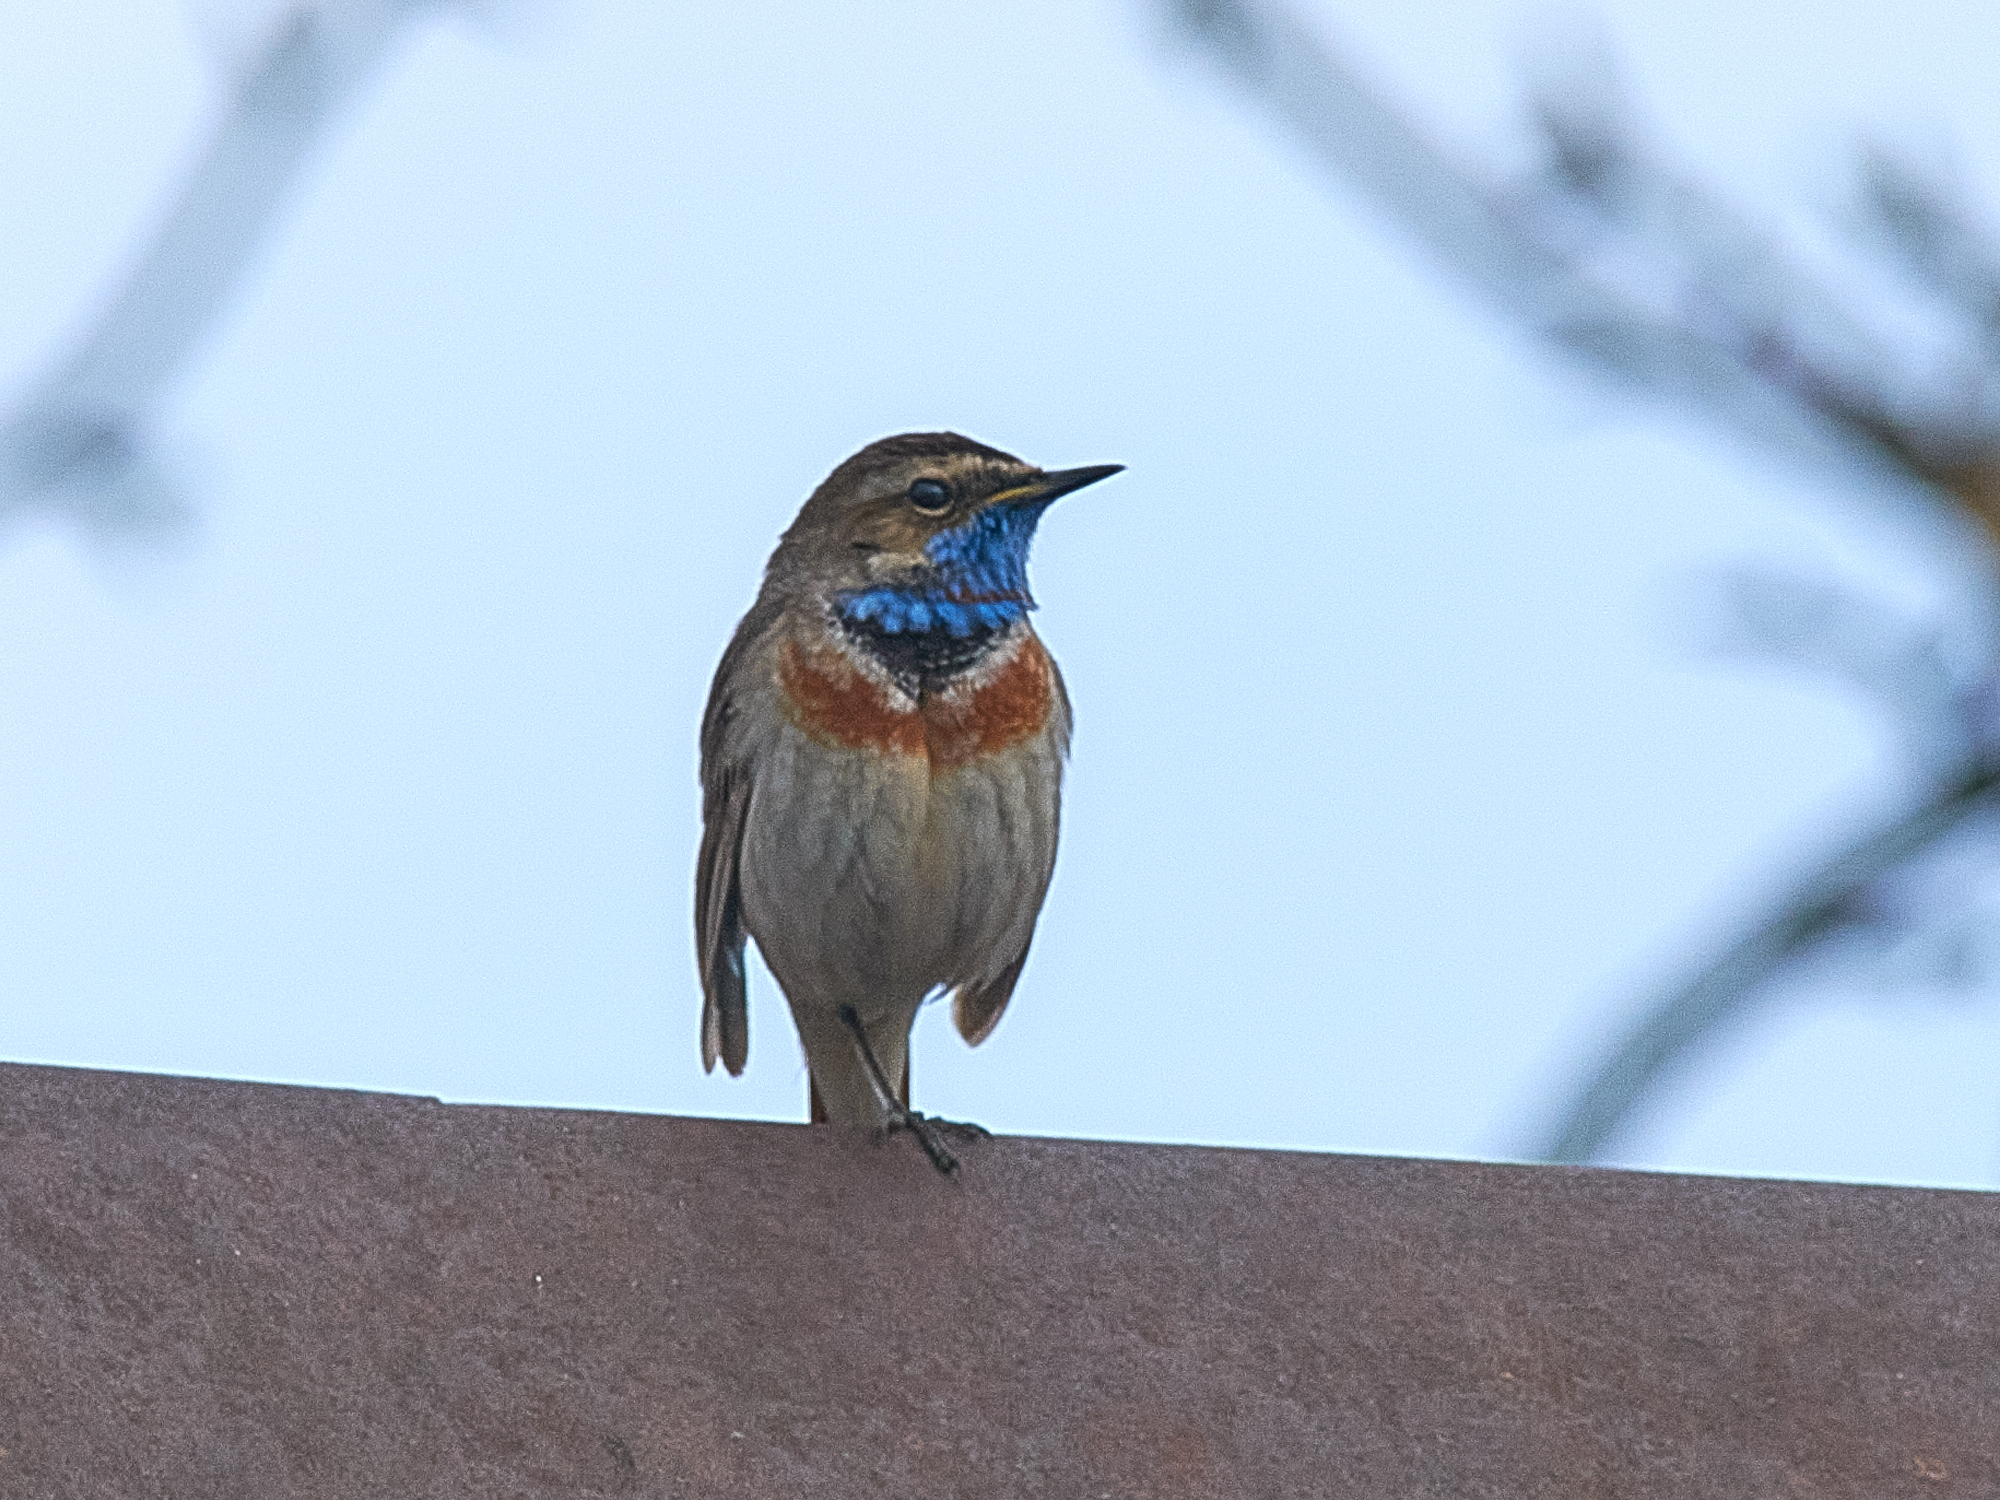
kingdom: Animalia
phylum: Chordata
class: Aves
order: Passeriformes
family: Muscicapidae
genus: Luscinia
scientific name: Luscinia svecica
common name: Bluethroat
